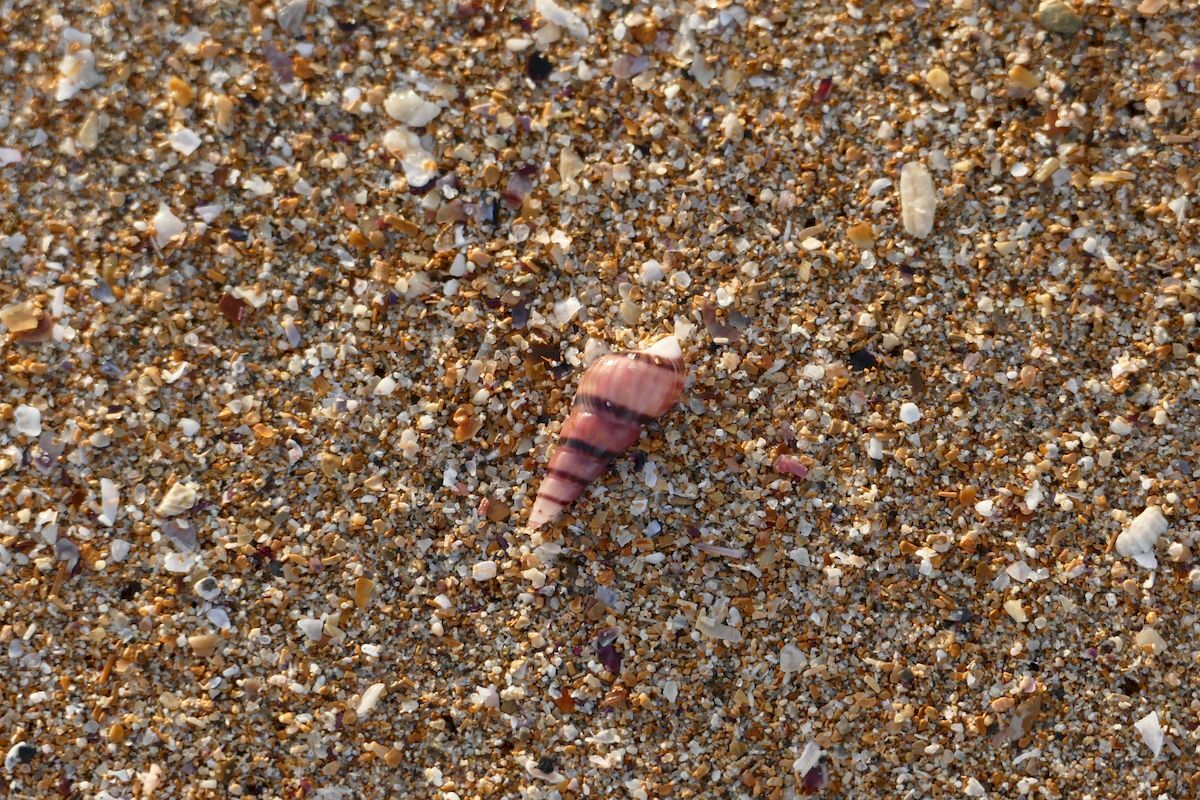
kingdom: Animalia
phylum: Mollusca
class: Gastropoda
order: Trochida
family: Trochidae
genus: Bankivia
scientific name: Bankivia fasciata
